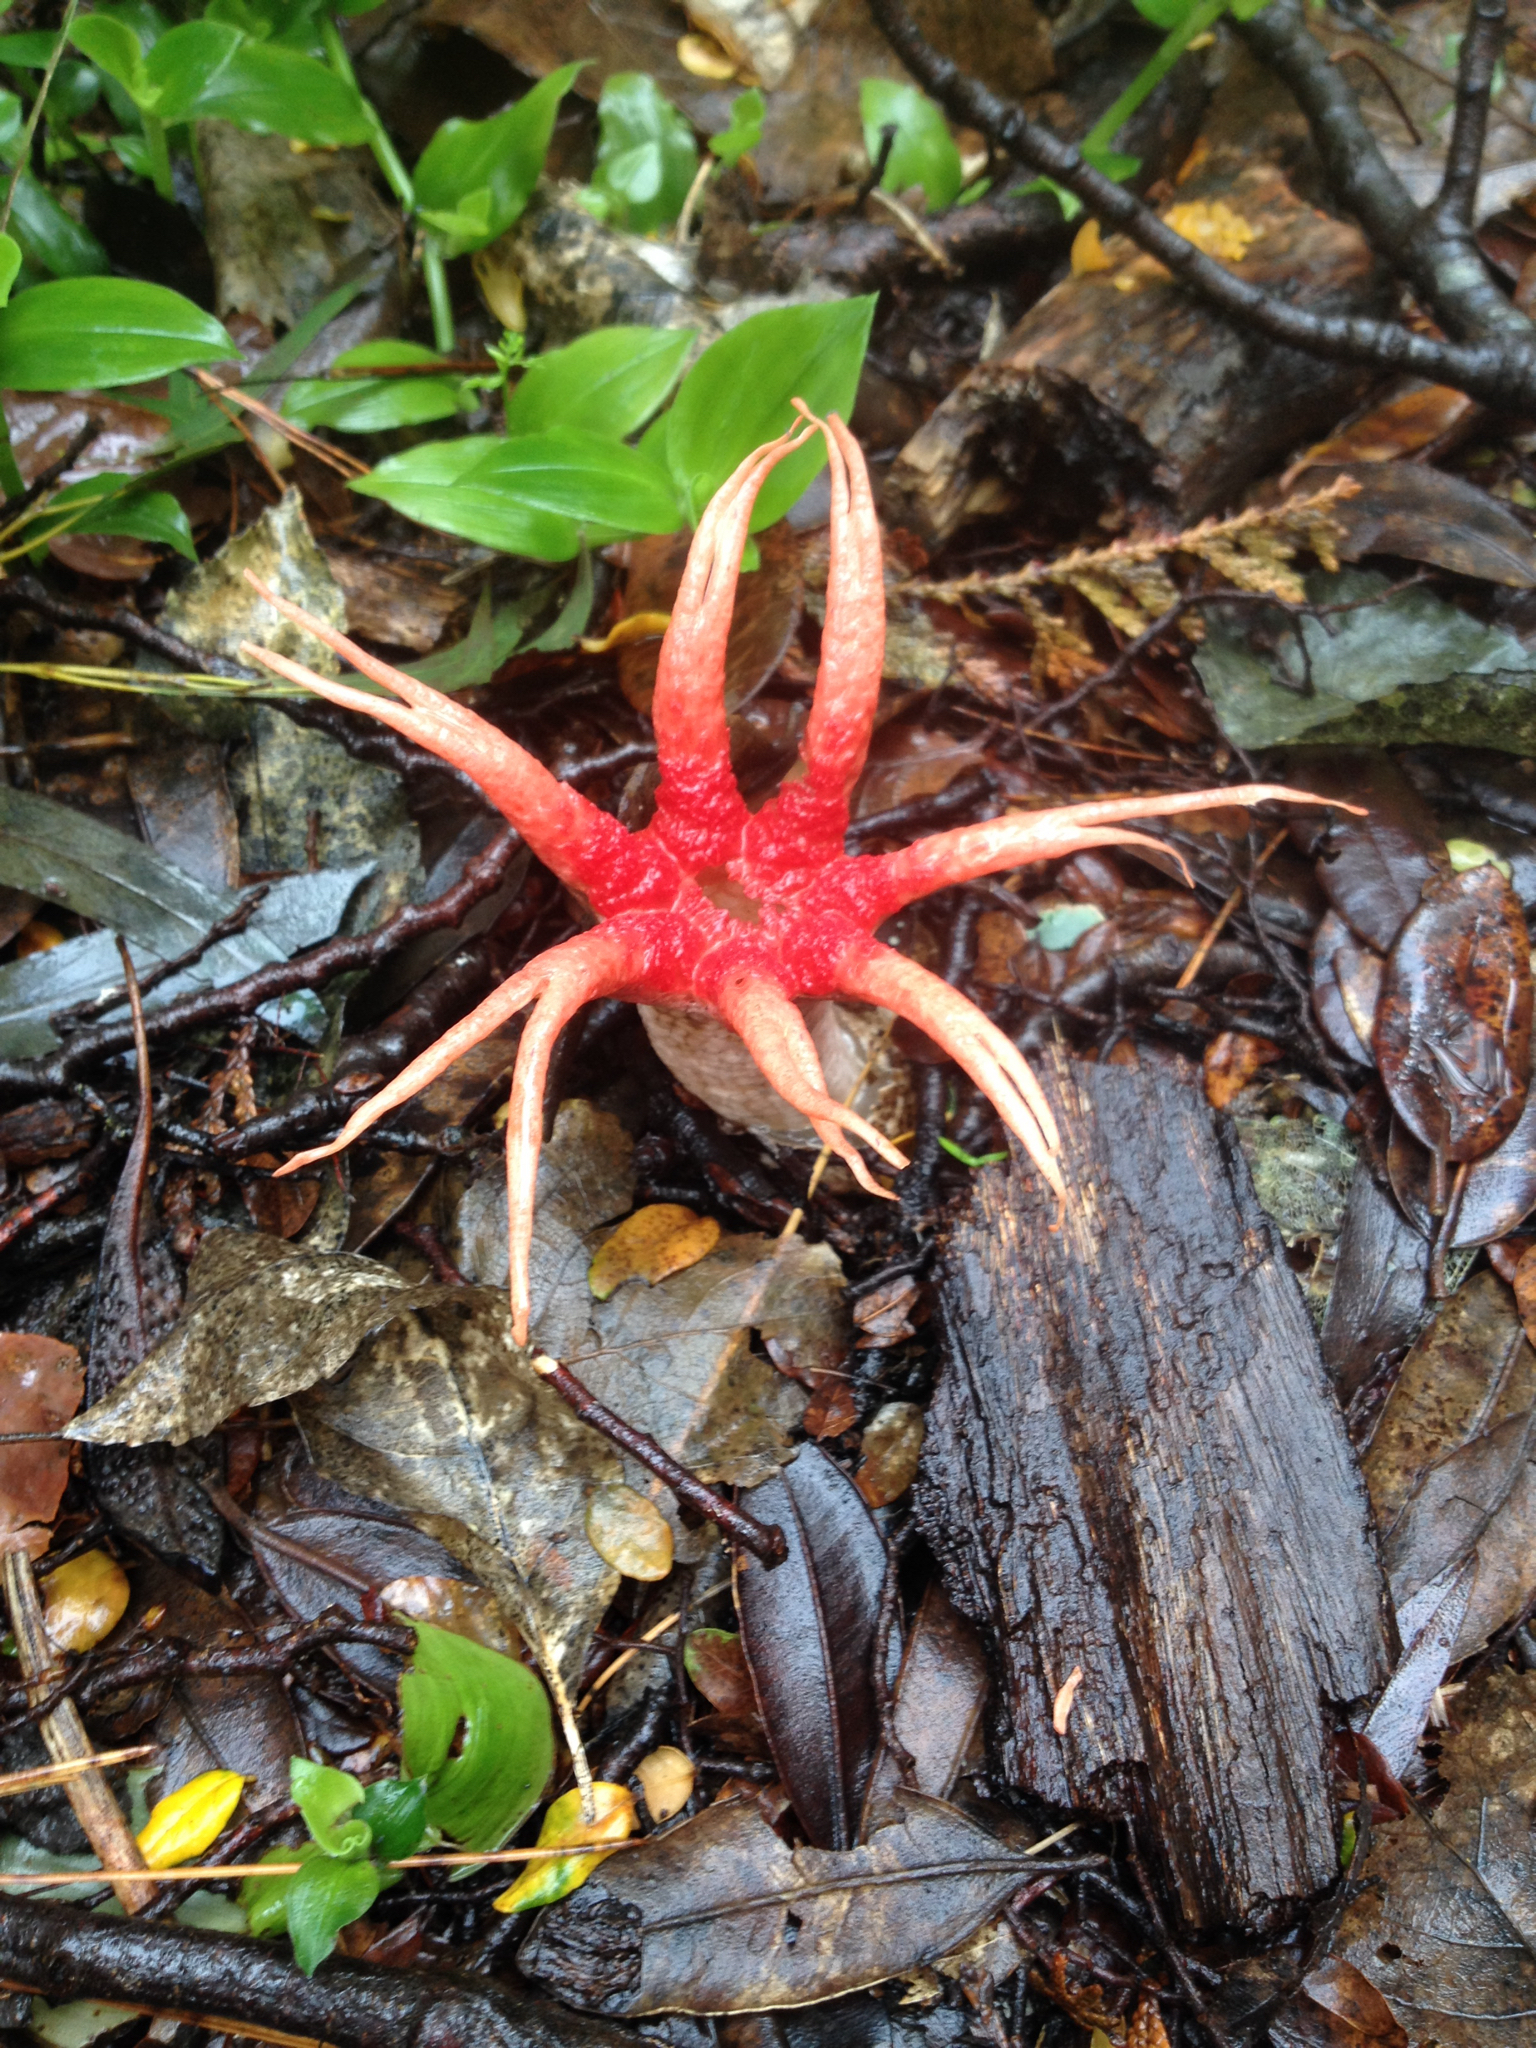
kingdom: Fungi
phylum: Basidiomycota
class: Agaricomycetes
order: Phallales
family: Phallaceae
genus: Aseroe
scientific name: Aseroe rubra
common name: Starfish fungus
